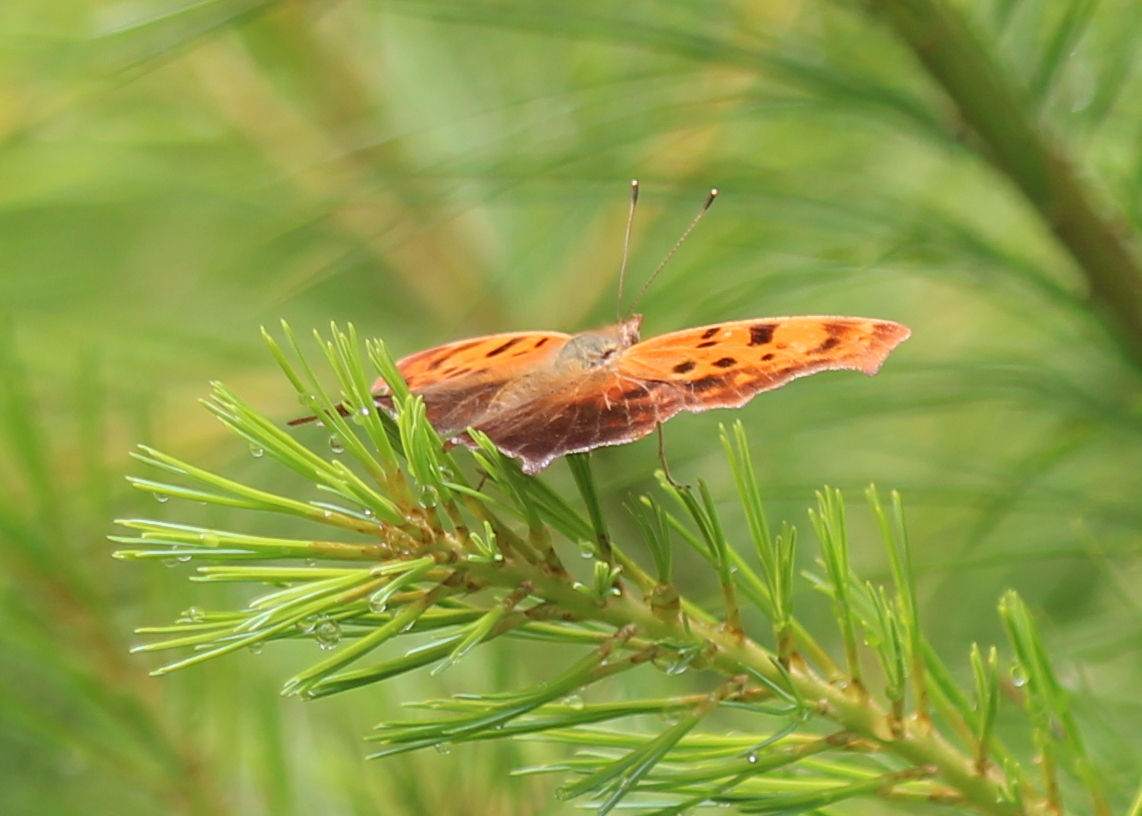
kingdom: Animalia
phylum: Arthropoda
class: Insecta
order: Lepidoptera
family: Nymphalidae
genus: Polygonia
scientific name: Polygonia interrogationis
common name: Question mark
